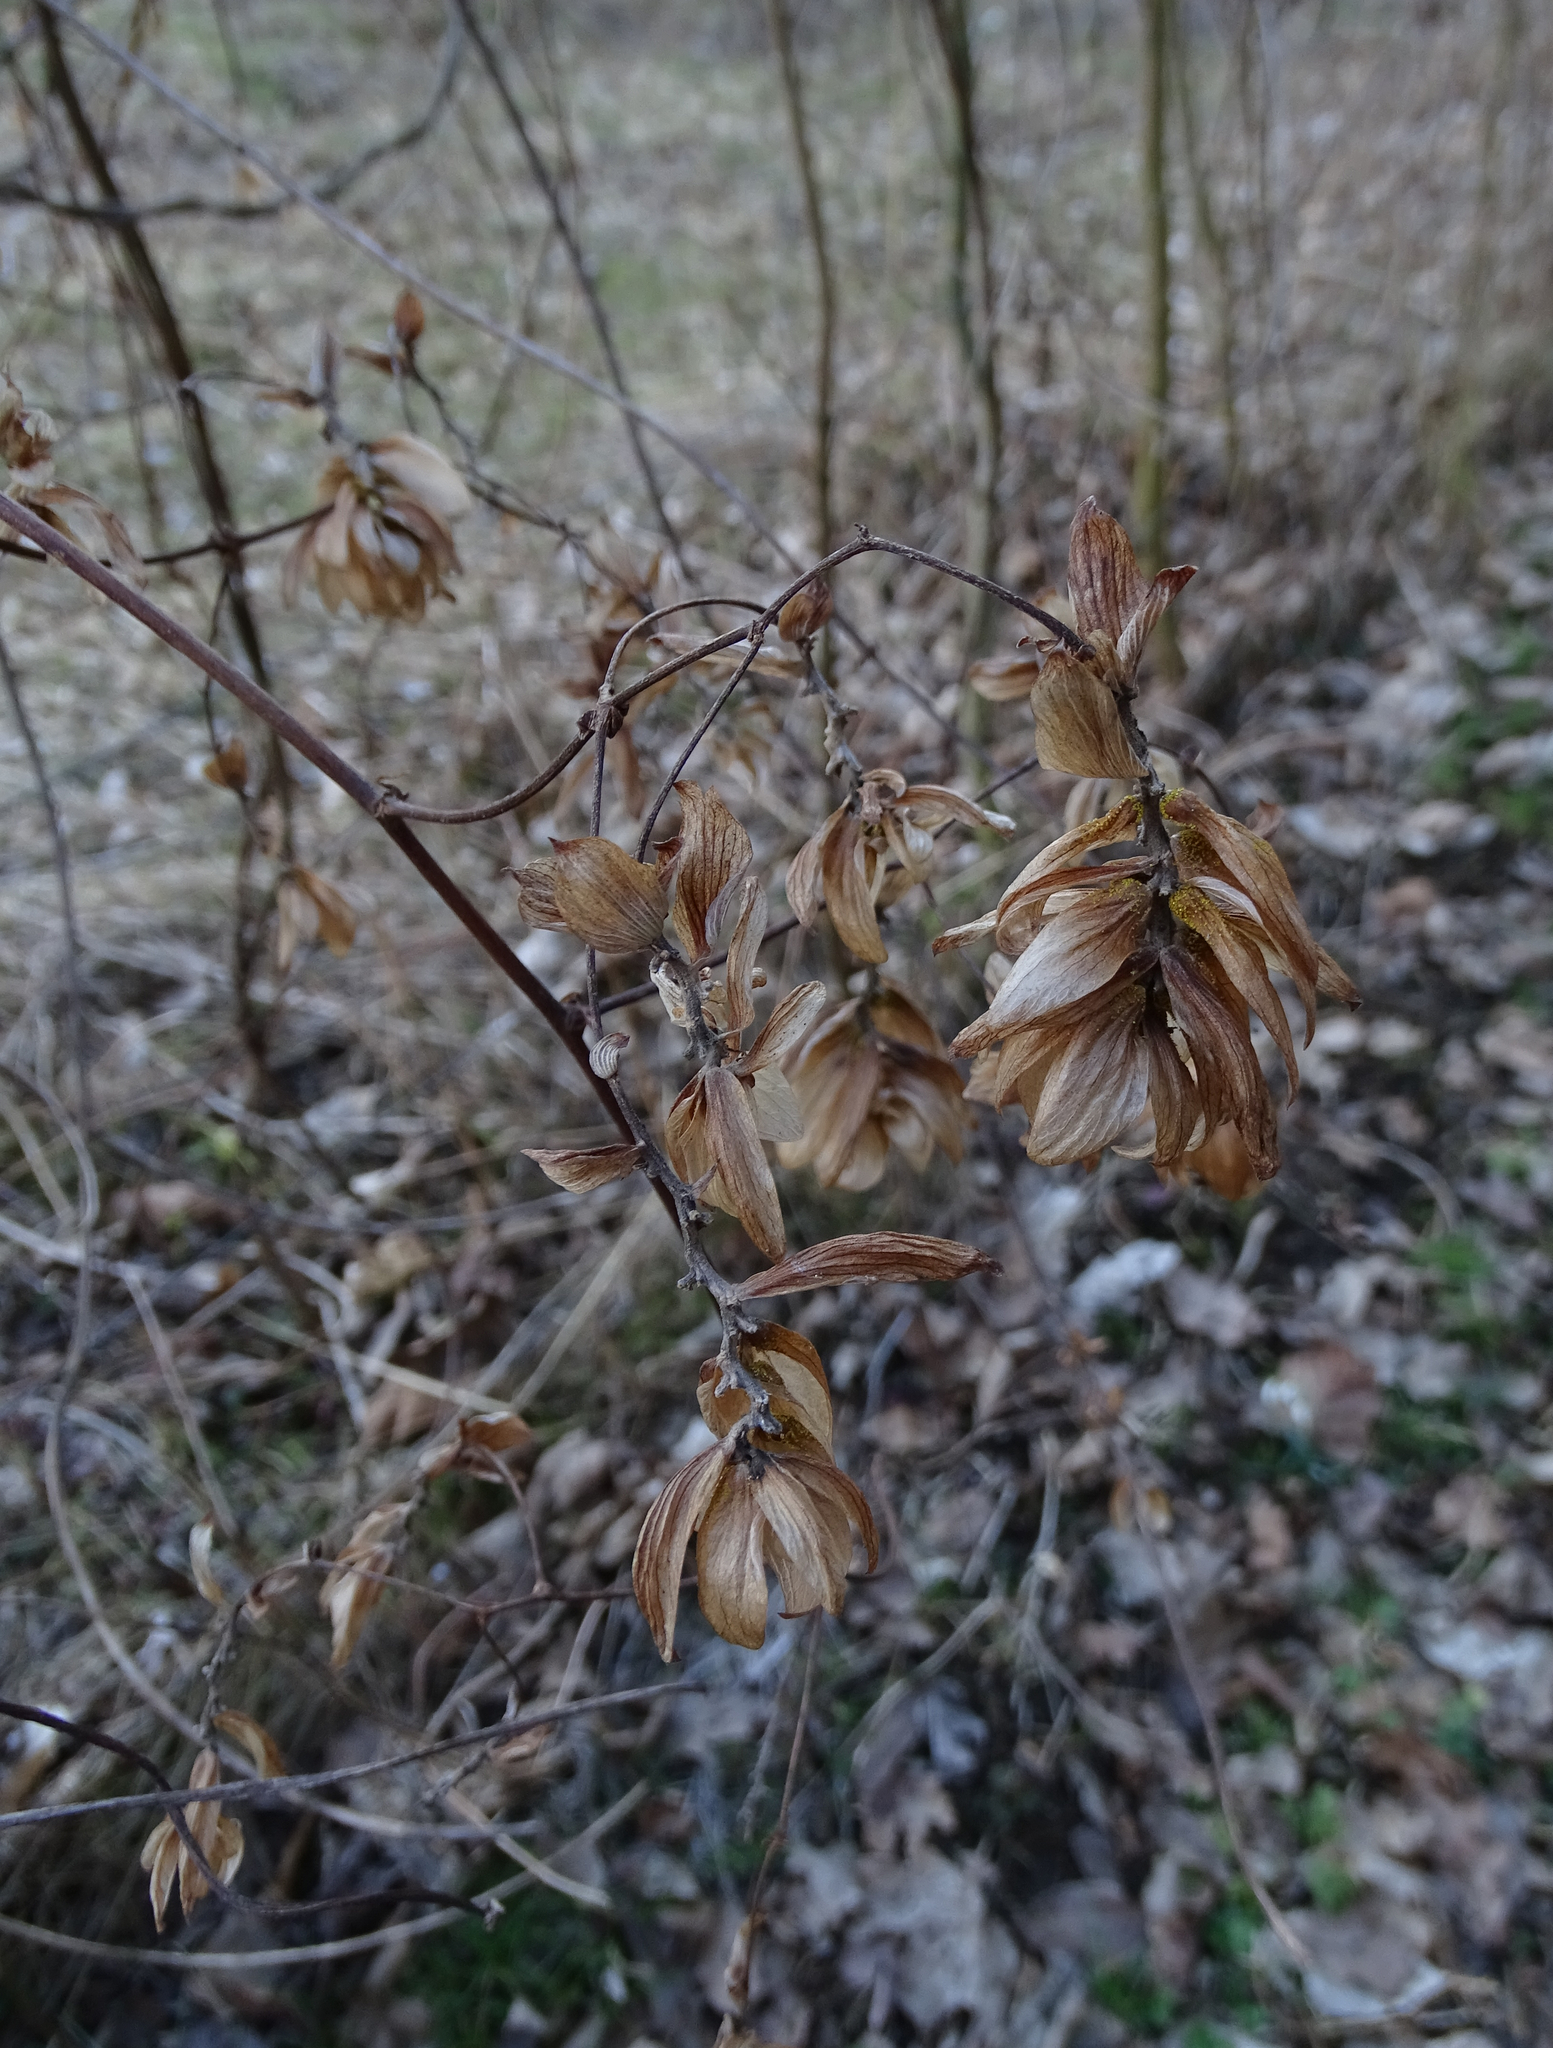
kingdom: Plantae
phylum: Tracheophyta
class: Magnoliopsida
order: Rosales
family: Cannabaceae
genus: Humulus
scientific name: Humulus lupulus
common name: Hop
